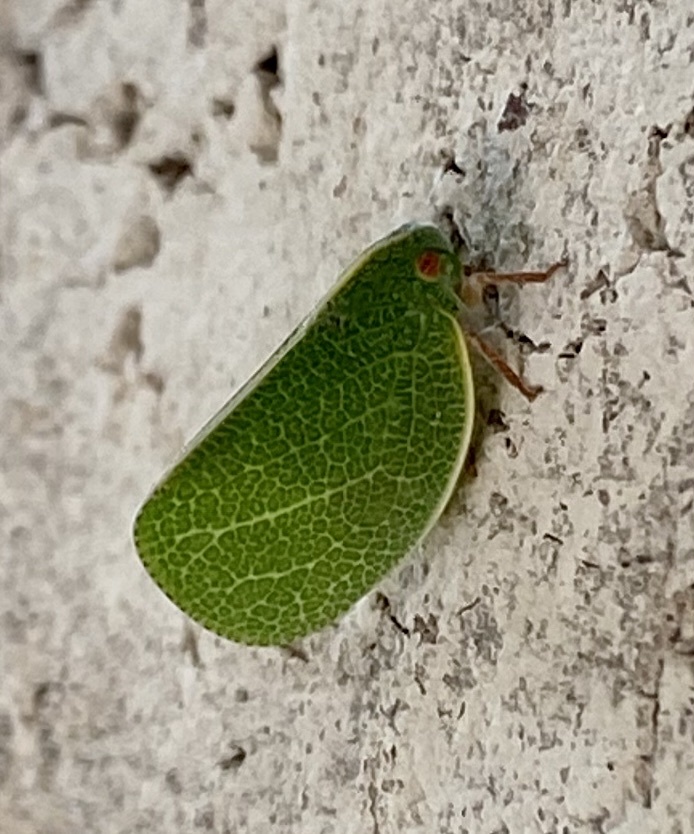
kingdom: Animalia
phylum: Arthropoda
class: Insecta
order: Hemiptera
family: Acanaloniidae
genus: Acanalonia
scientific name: Acanalonia servillei
